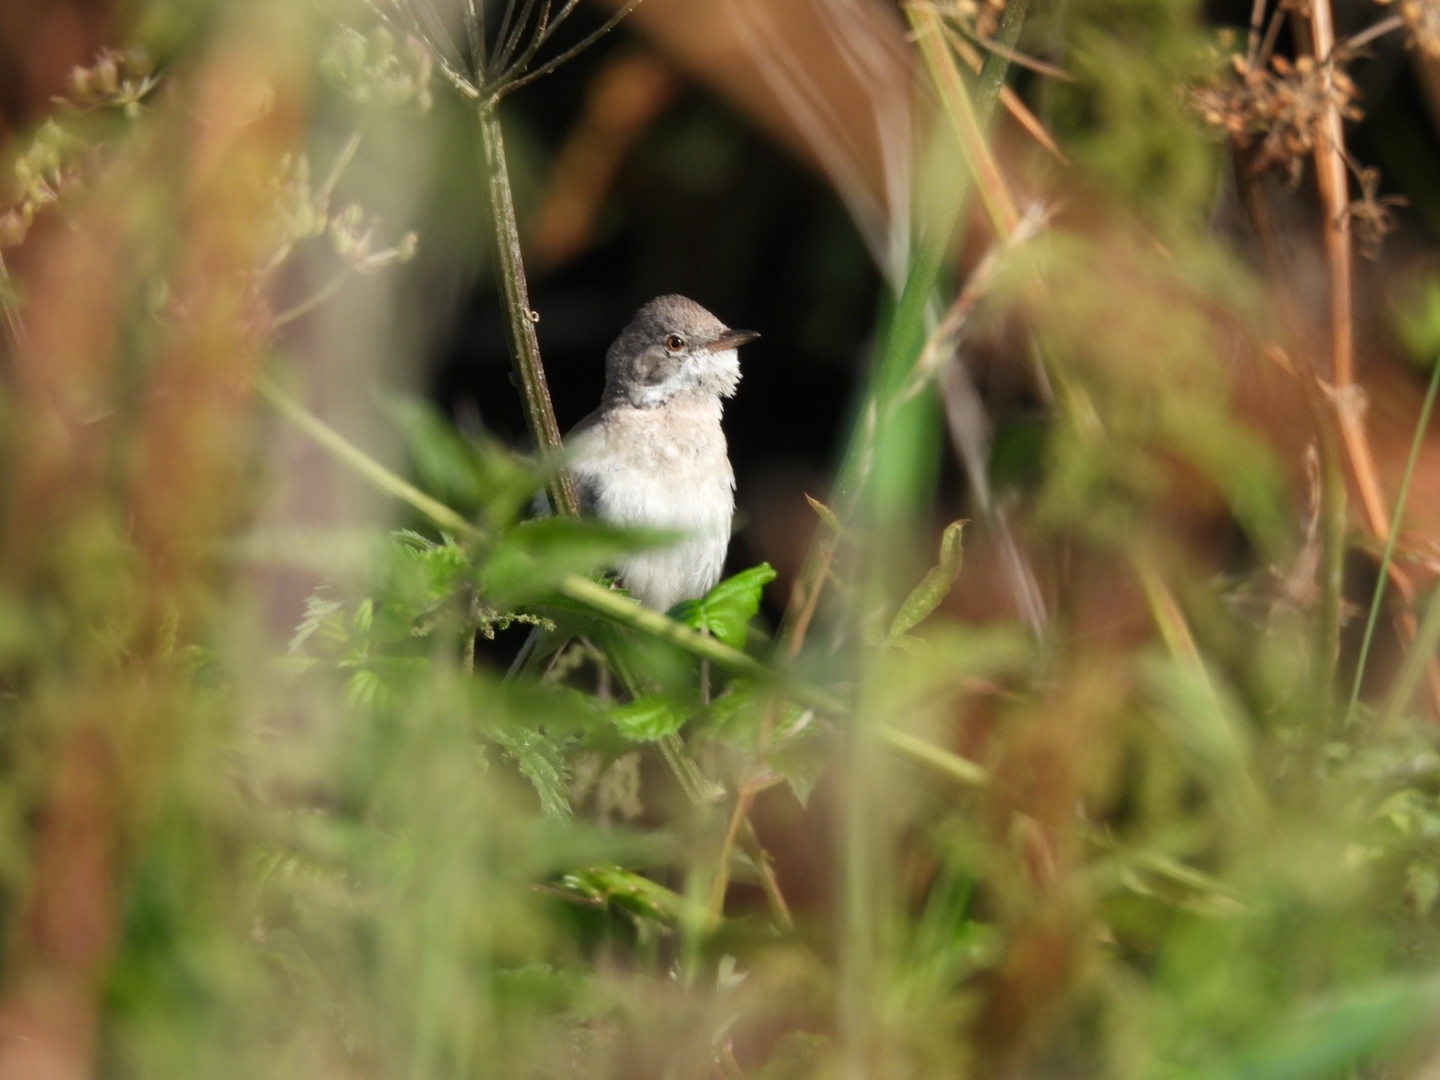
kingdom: Animalia
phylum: Chordata
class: Aves
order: Passeriformes
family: Sylviidae
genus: Sylvia
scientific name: Sylvia communis
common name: Common whitethroat
